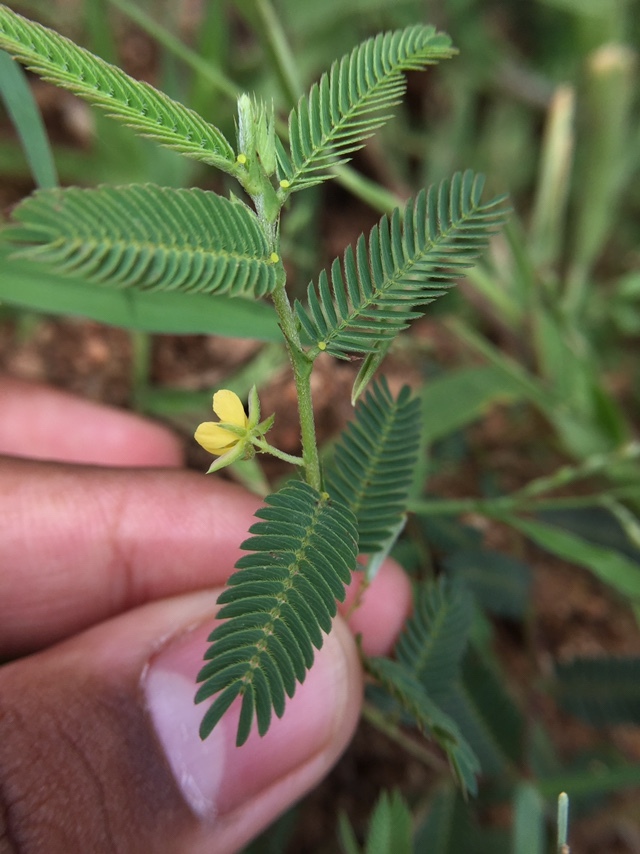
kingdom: Plantae
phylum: Tracheophyta
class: Magnoliopsida
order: Fabales
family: Fabaceae
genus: Chamaecrista
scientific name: Chamaecrista pumila
